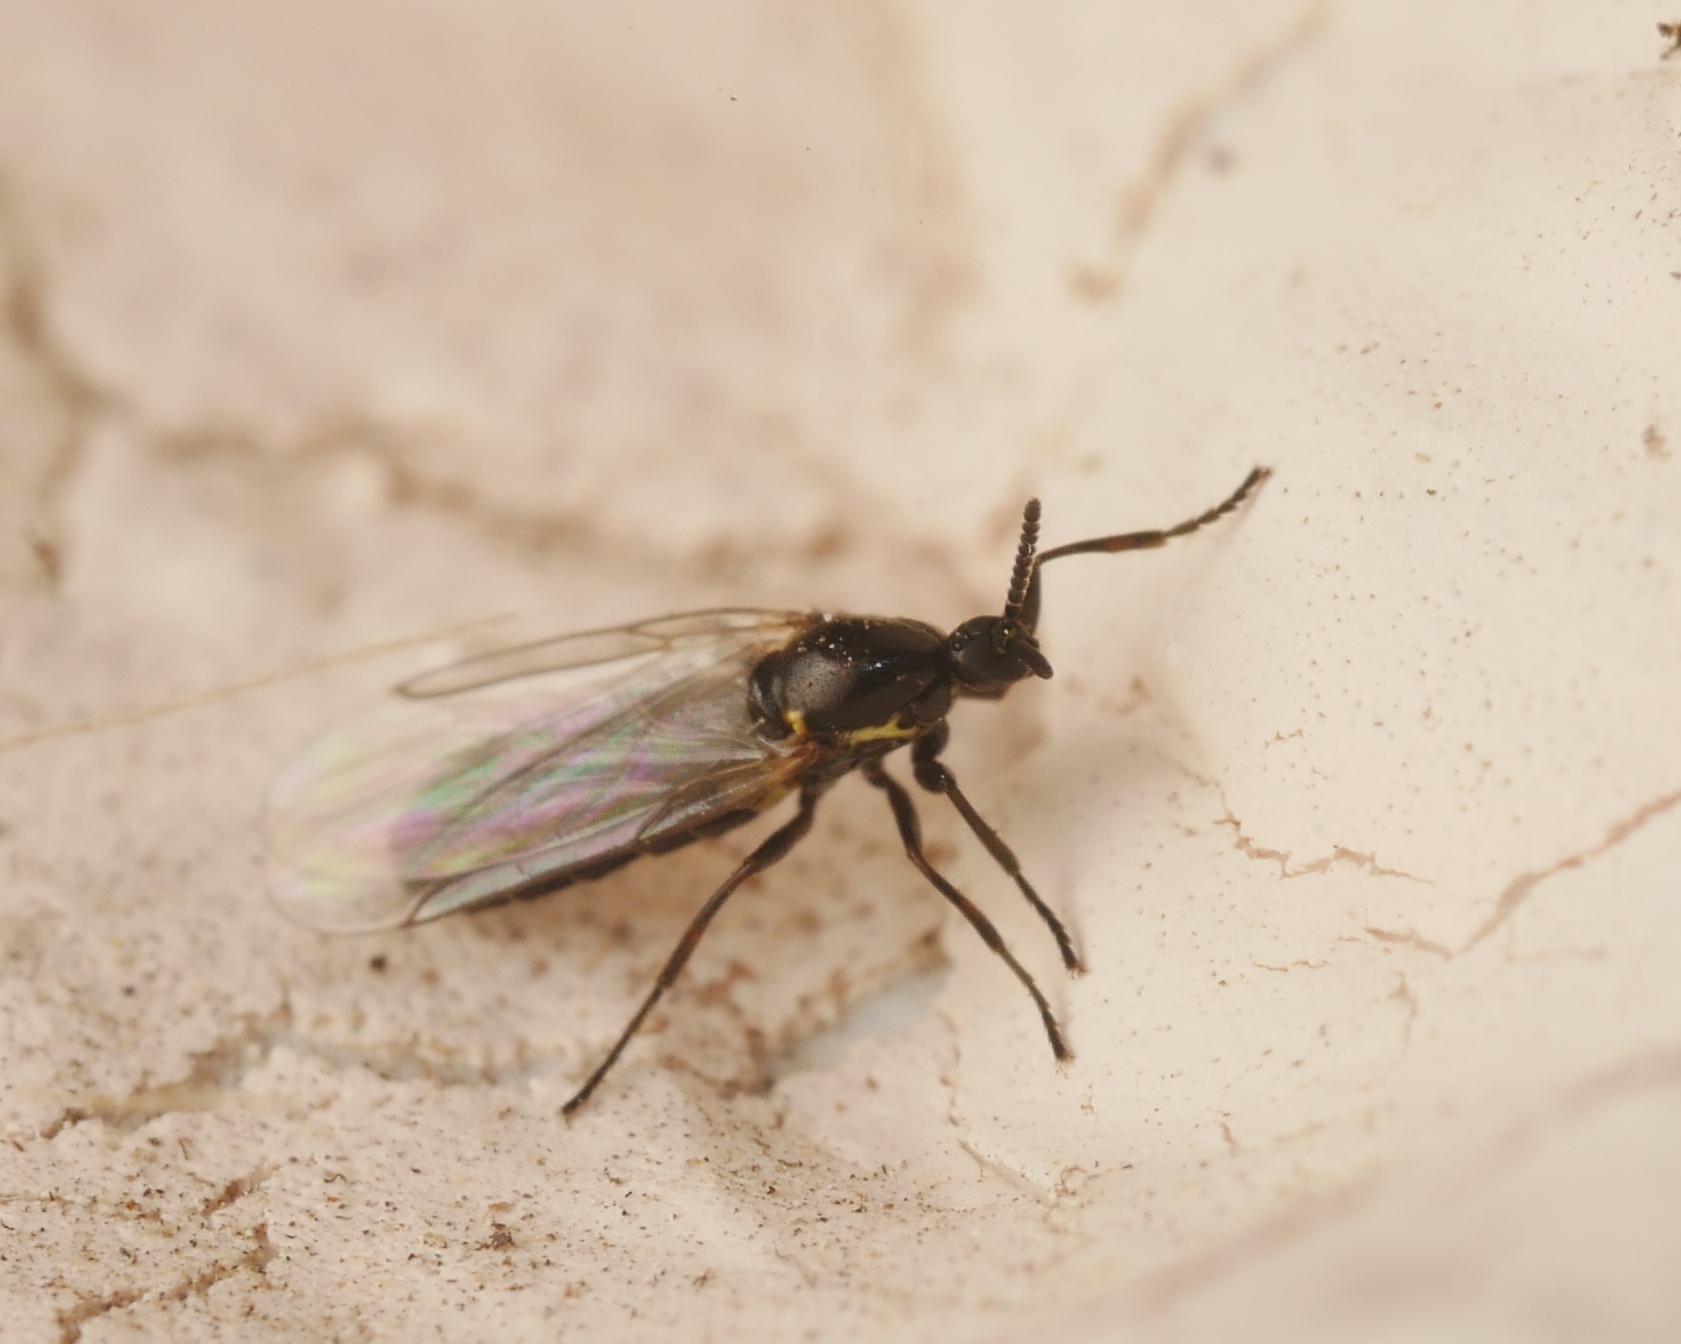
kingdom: Animalia
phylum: Arthropoda
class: Insecta
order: Diptera
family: Scatopsidae
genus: Scatopse
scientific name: Scatopse notata
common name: Minute black scavenger fly
